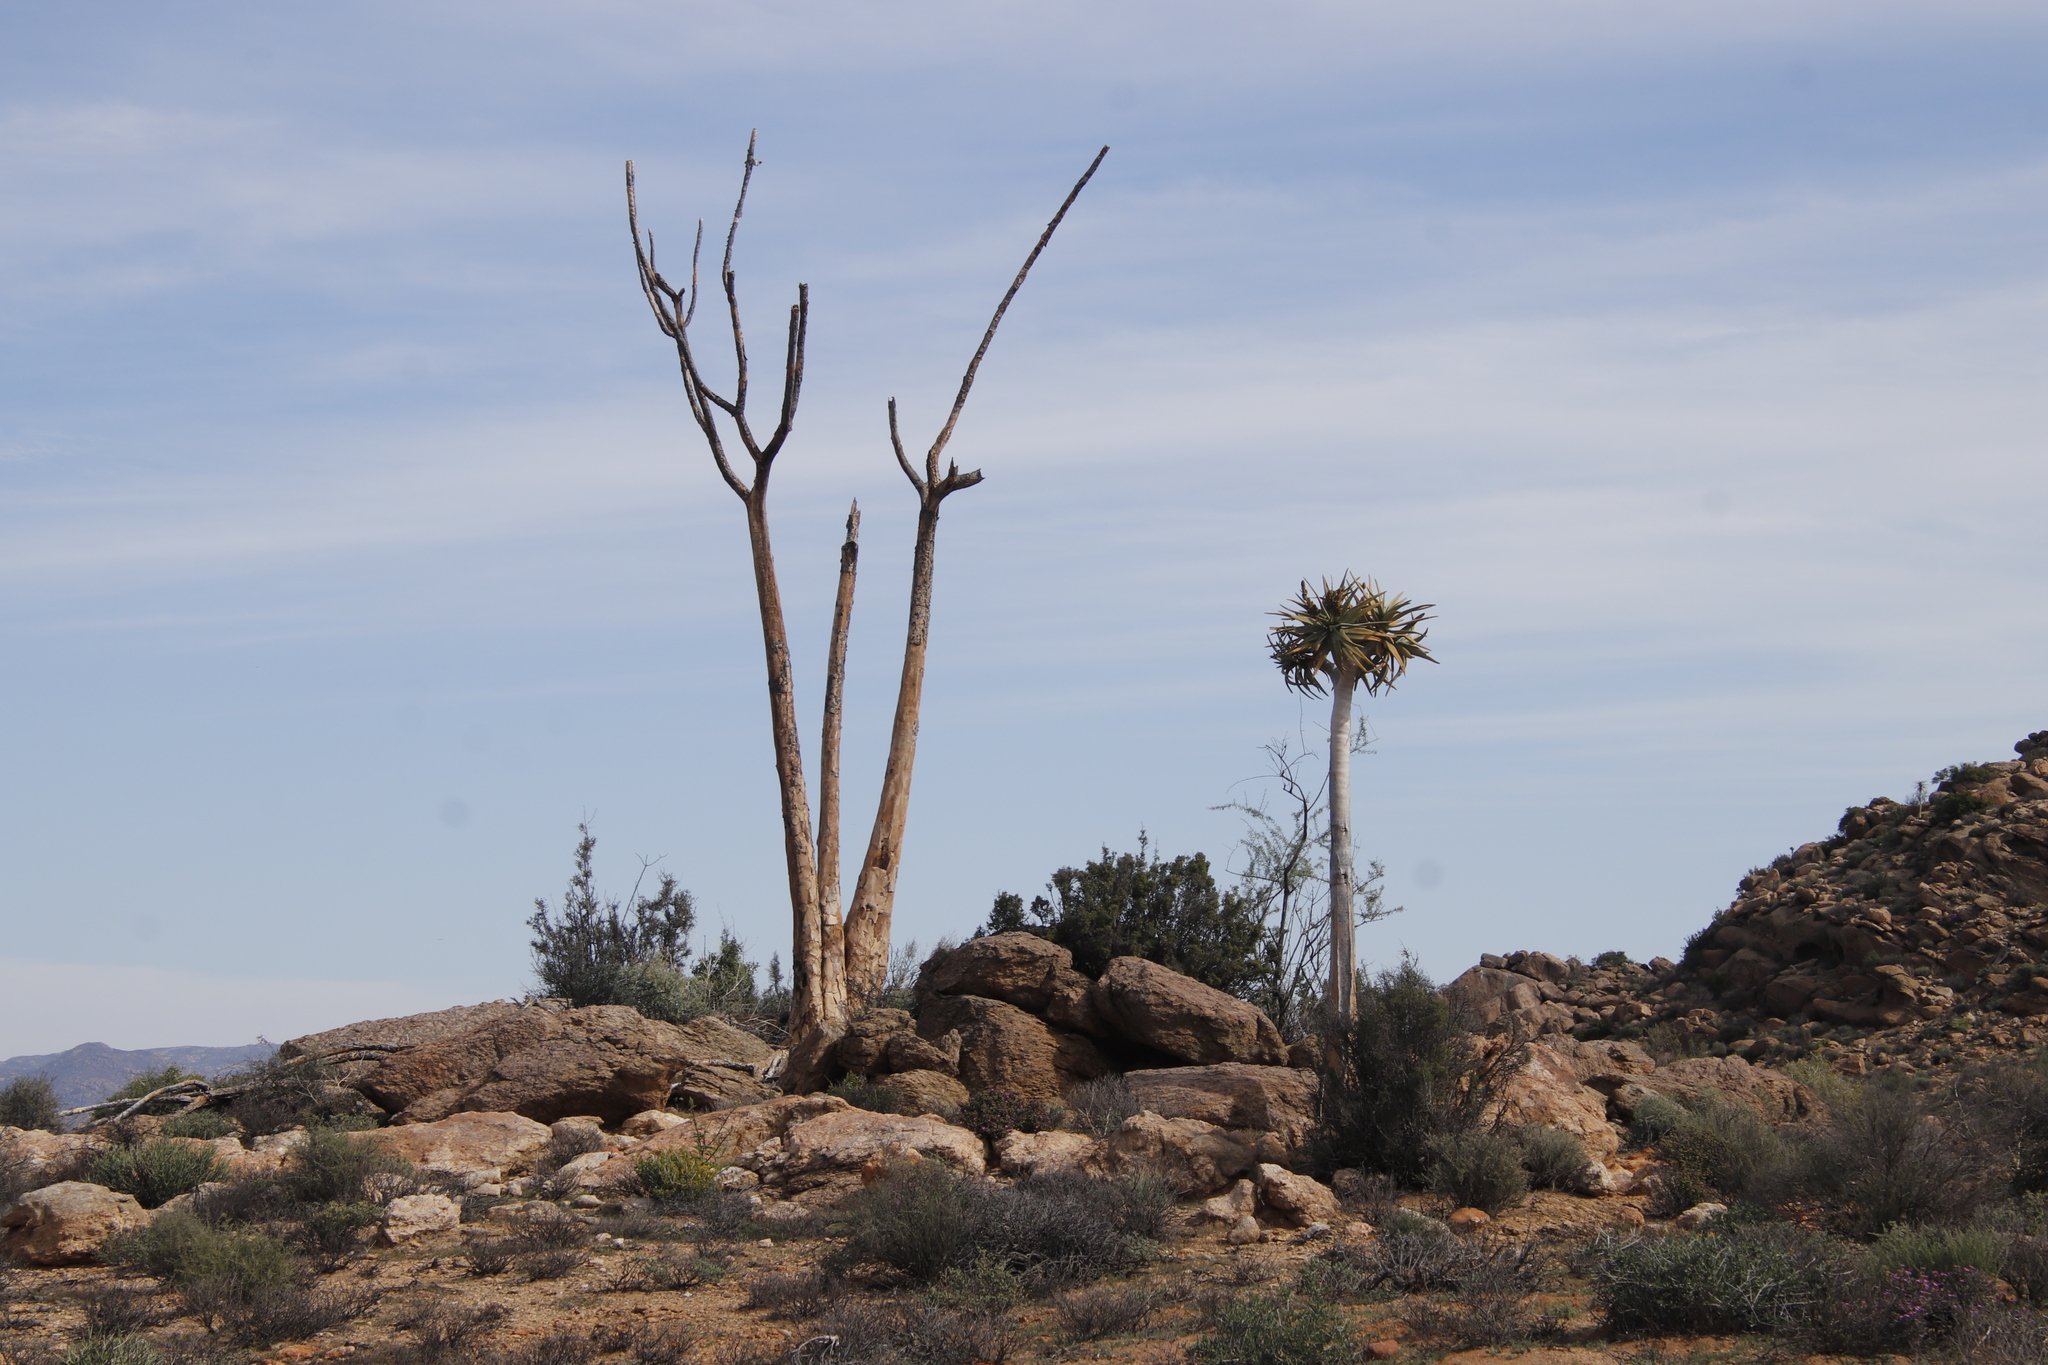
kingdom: Plantae
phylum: Tracheophyta
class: Liliopsida
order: Asparagales
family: Asphodelaceae
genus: Aloidendron
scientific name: Aloidendron dichotomum
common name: Quiver tree
